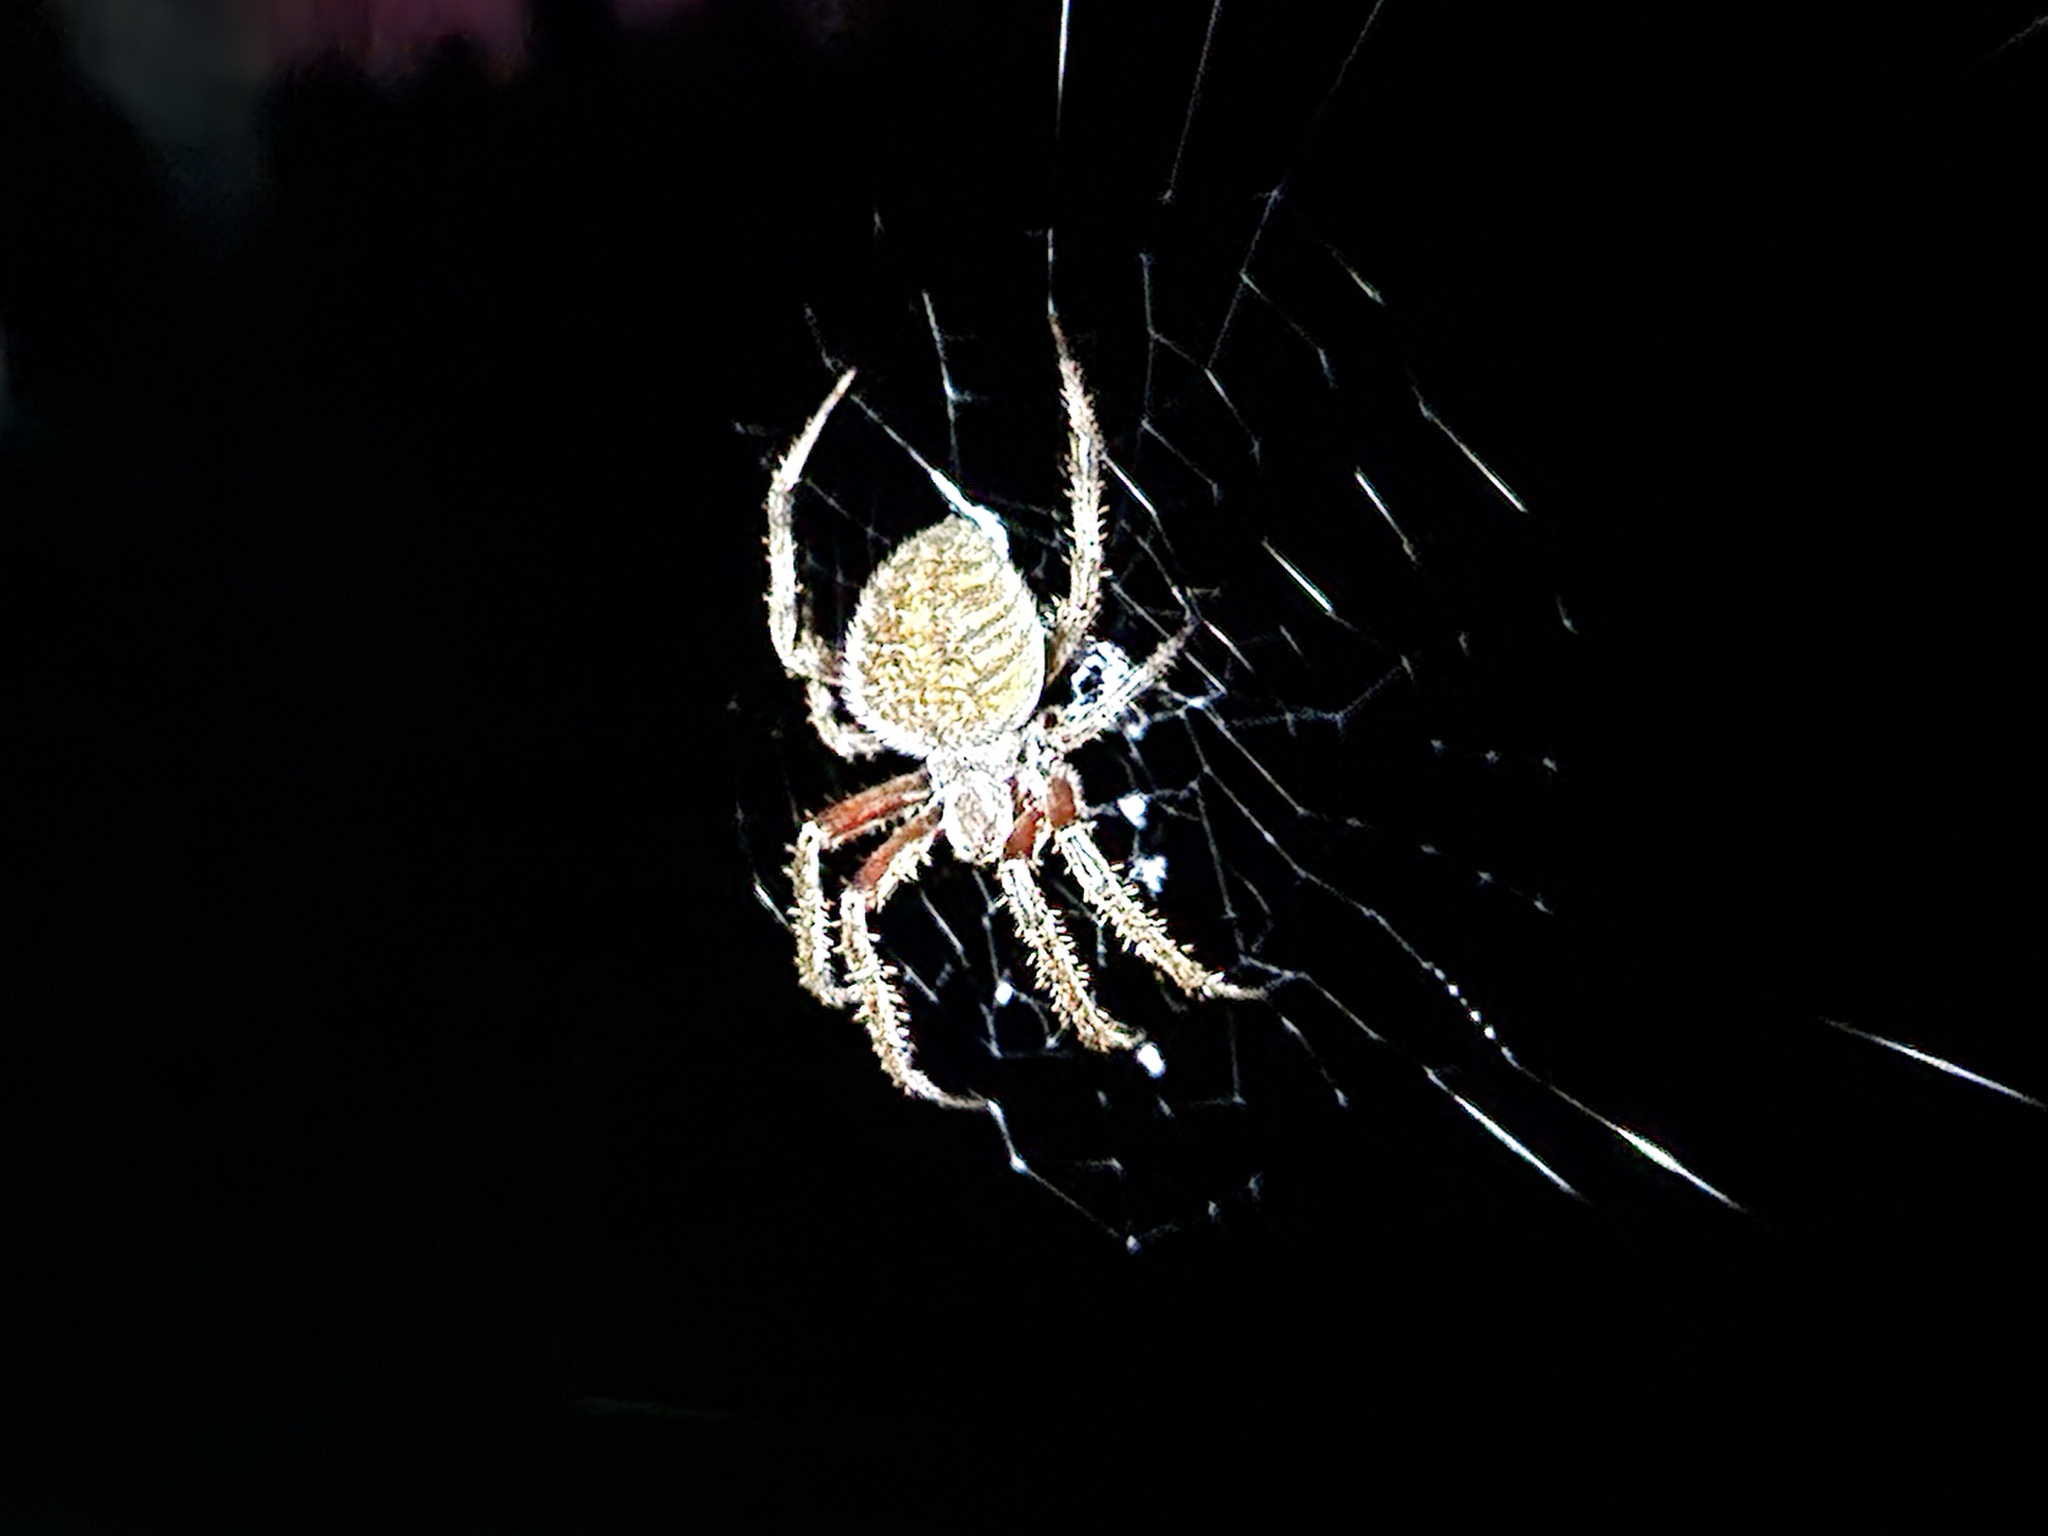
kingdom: Animalia
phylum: Arthropoda
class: Arachnida
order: Araneae
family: Araneidae
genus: Neoscona
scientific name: Neoscona crucifera
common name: Spotted orbweaver
